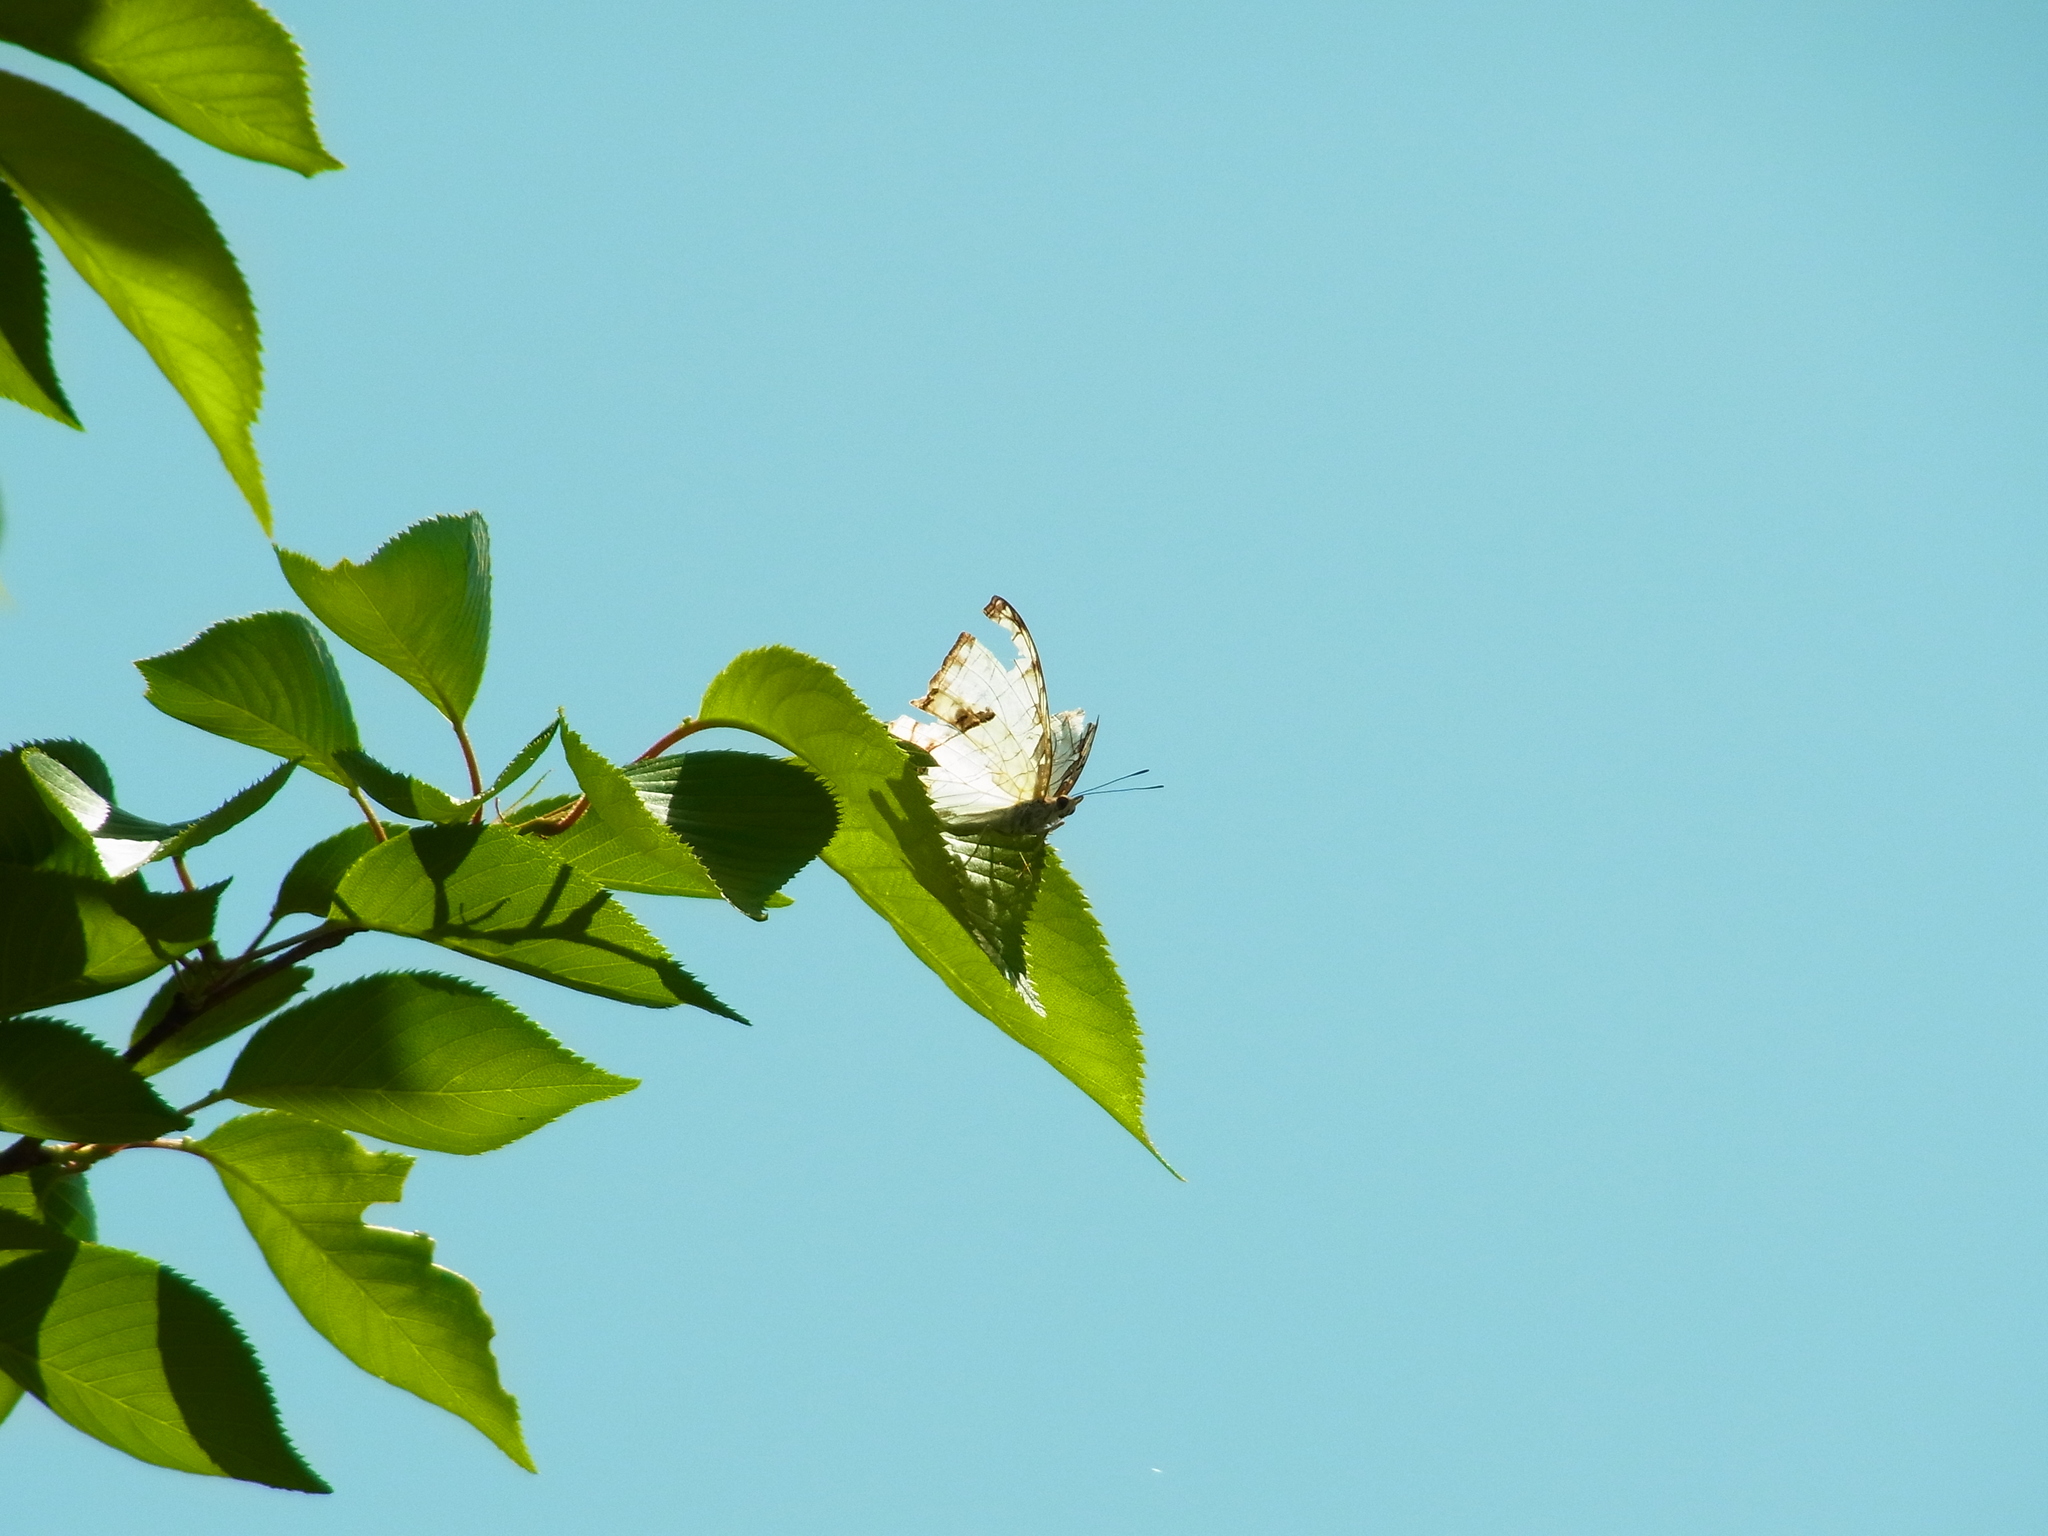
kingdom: Animalia
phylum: Arthropoda
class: Insecta
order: Lepidoptera
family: Nymphalidae
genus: Cyrestis
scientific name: Cyrestis thyodamas
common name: Common mapwing
